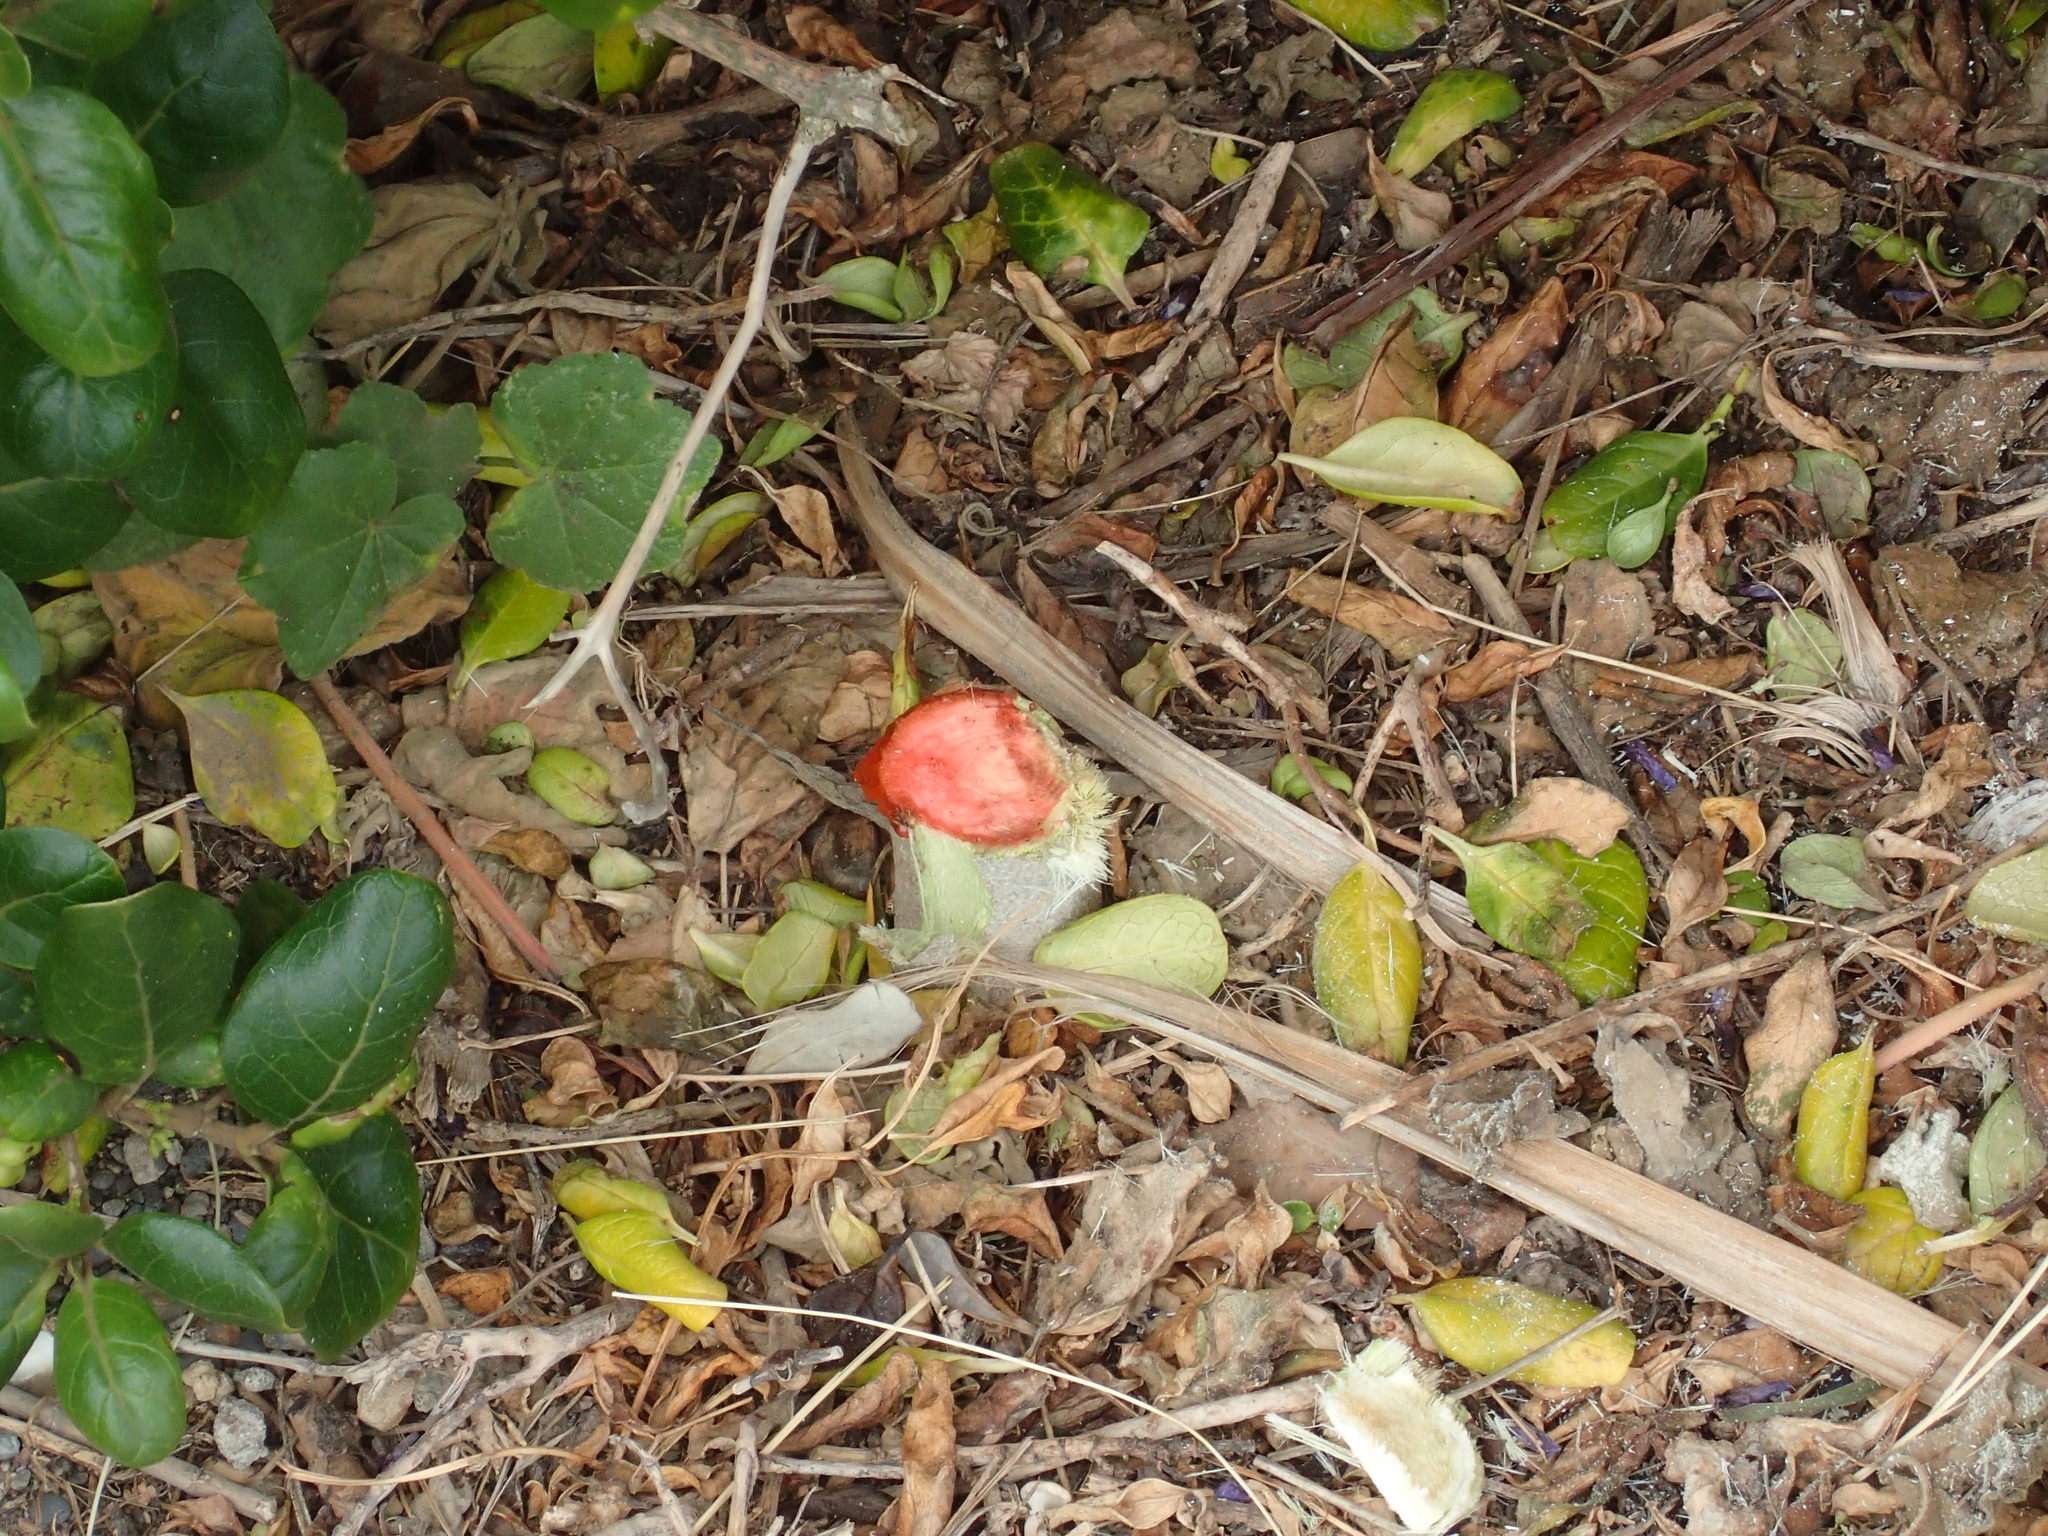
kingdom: Plantae
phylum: Tracheophyta
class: Magnoliopsida
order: Malvales
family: Malvaceae
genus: Malva
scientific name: Malva arborea
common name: Tree mallow
